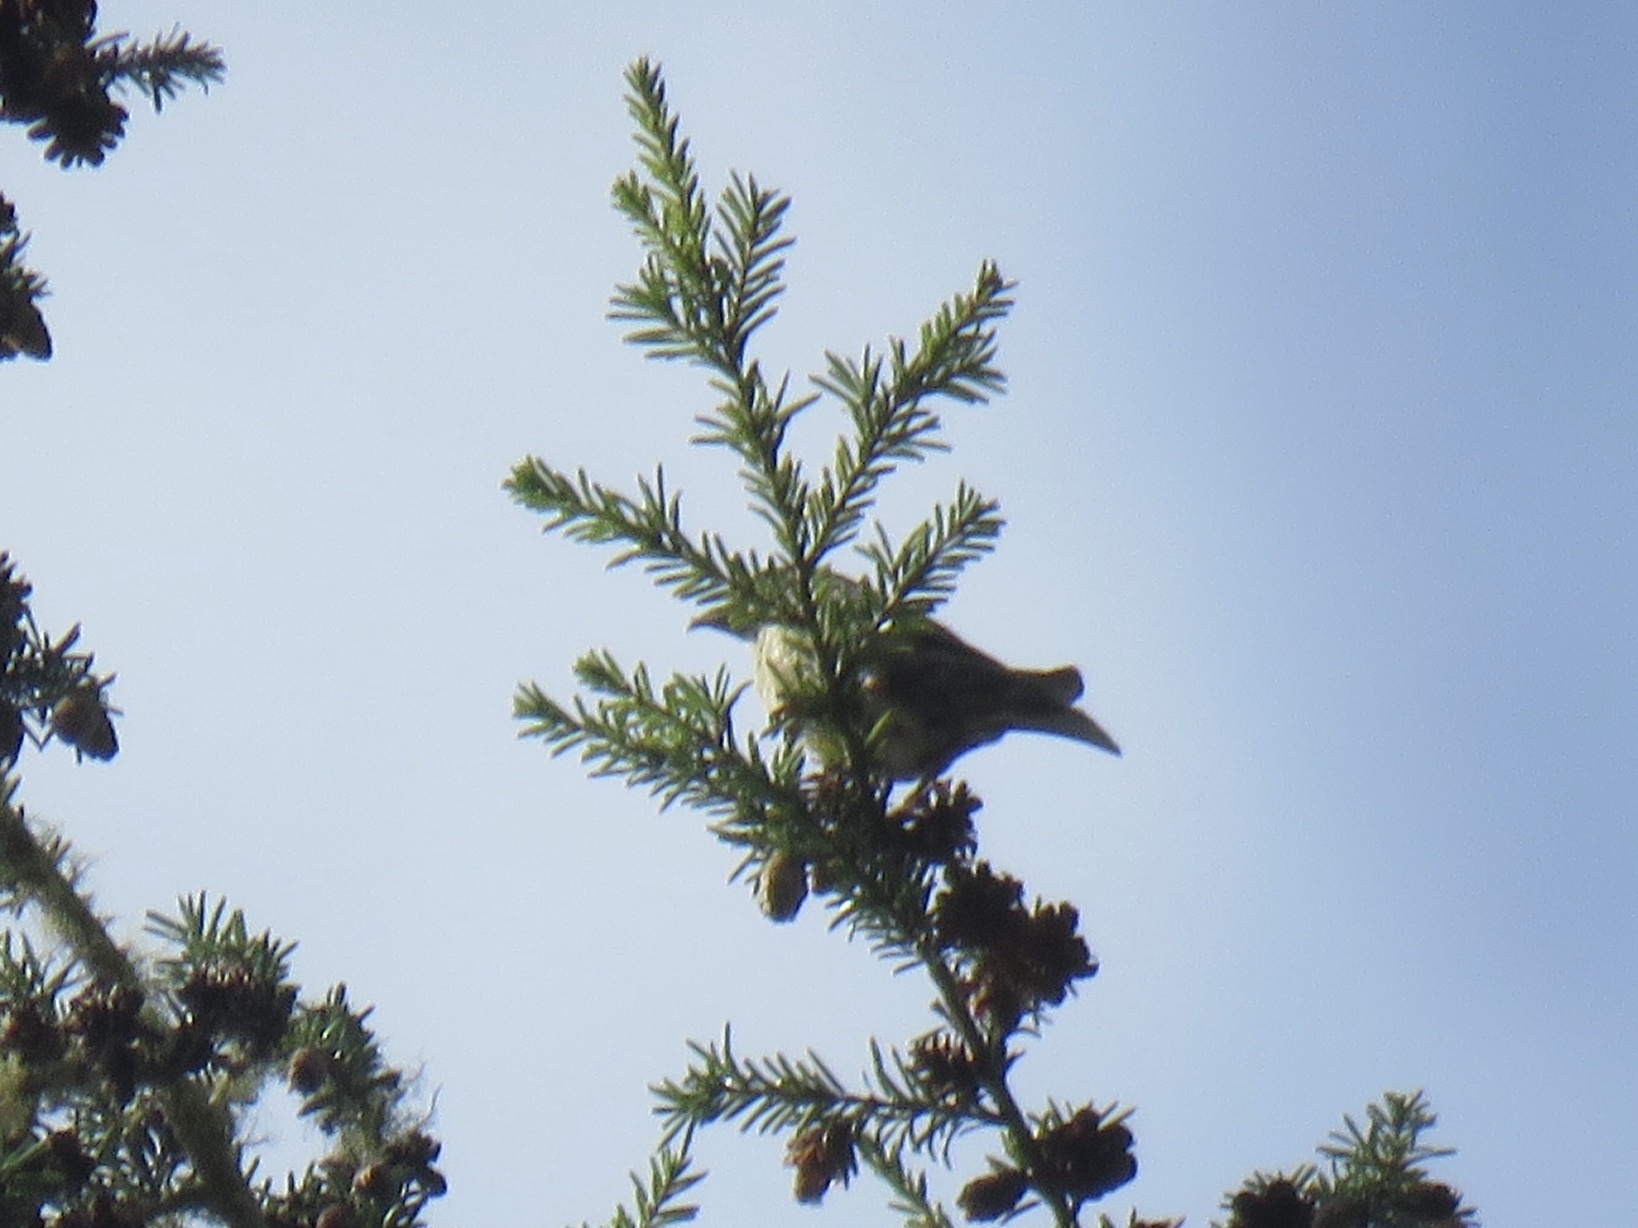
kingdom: Animalia
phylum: Chordata
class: Aves
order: Passeriformes
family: Fringillidae
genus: Loxia
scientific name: Loxia curvirostra
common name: Red crossbill
